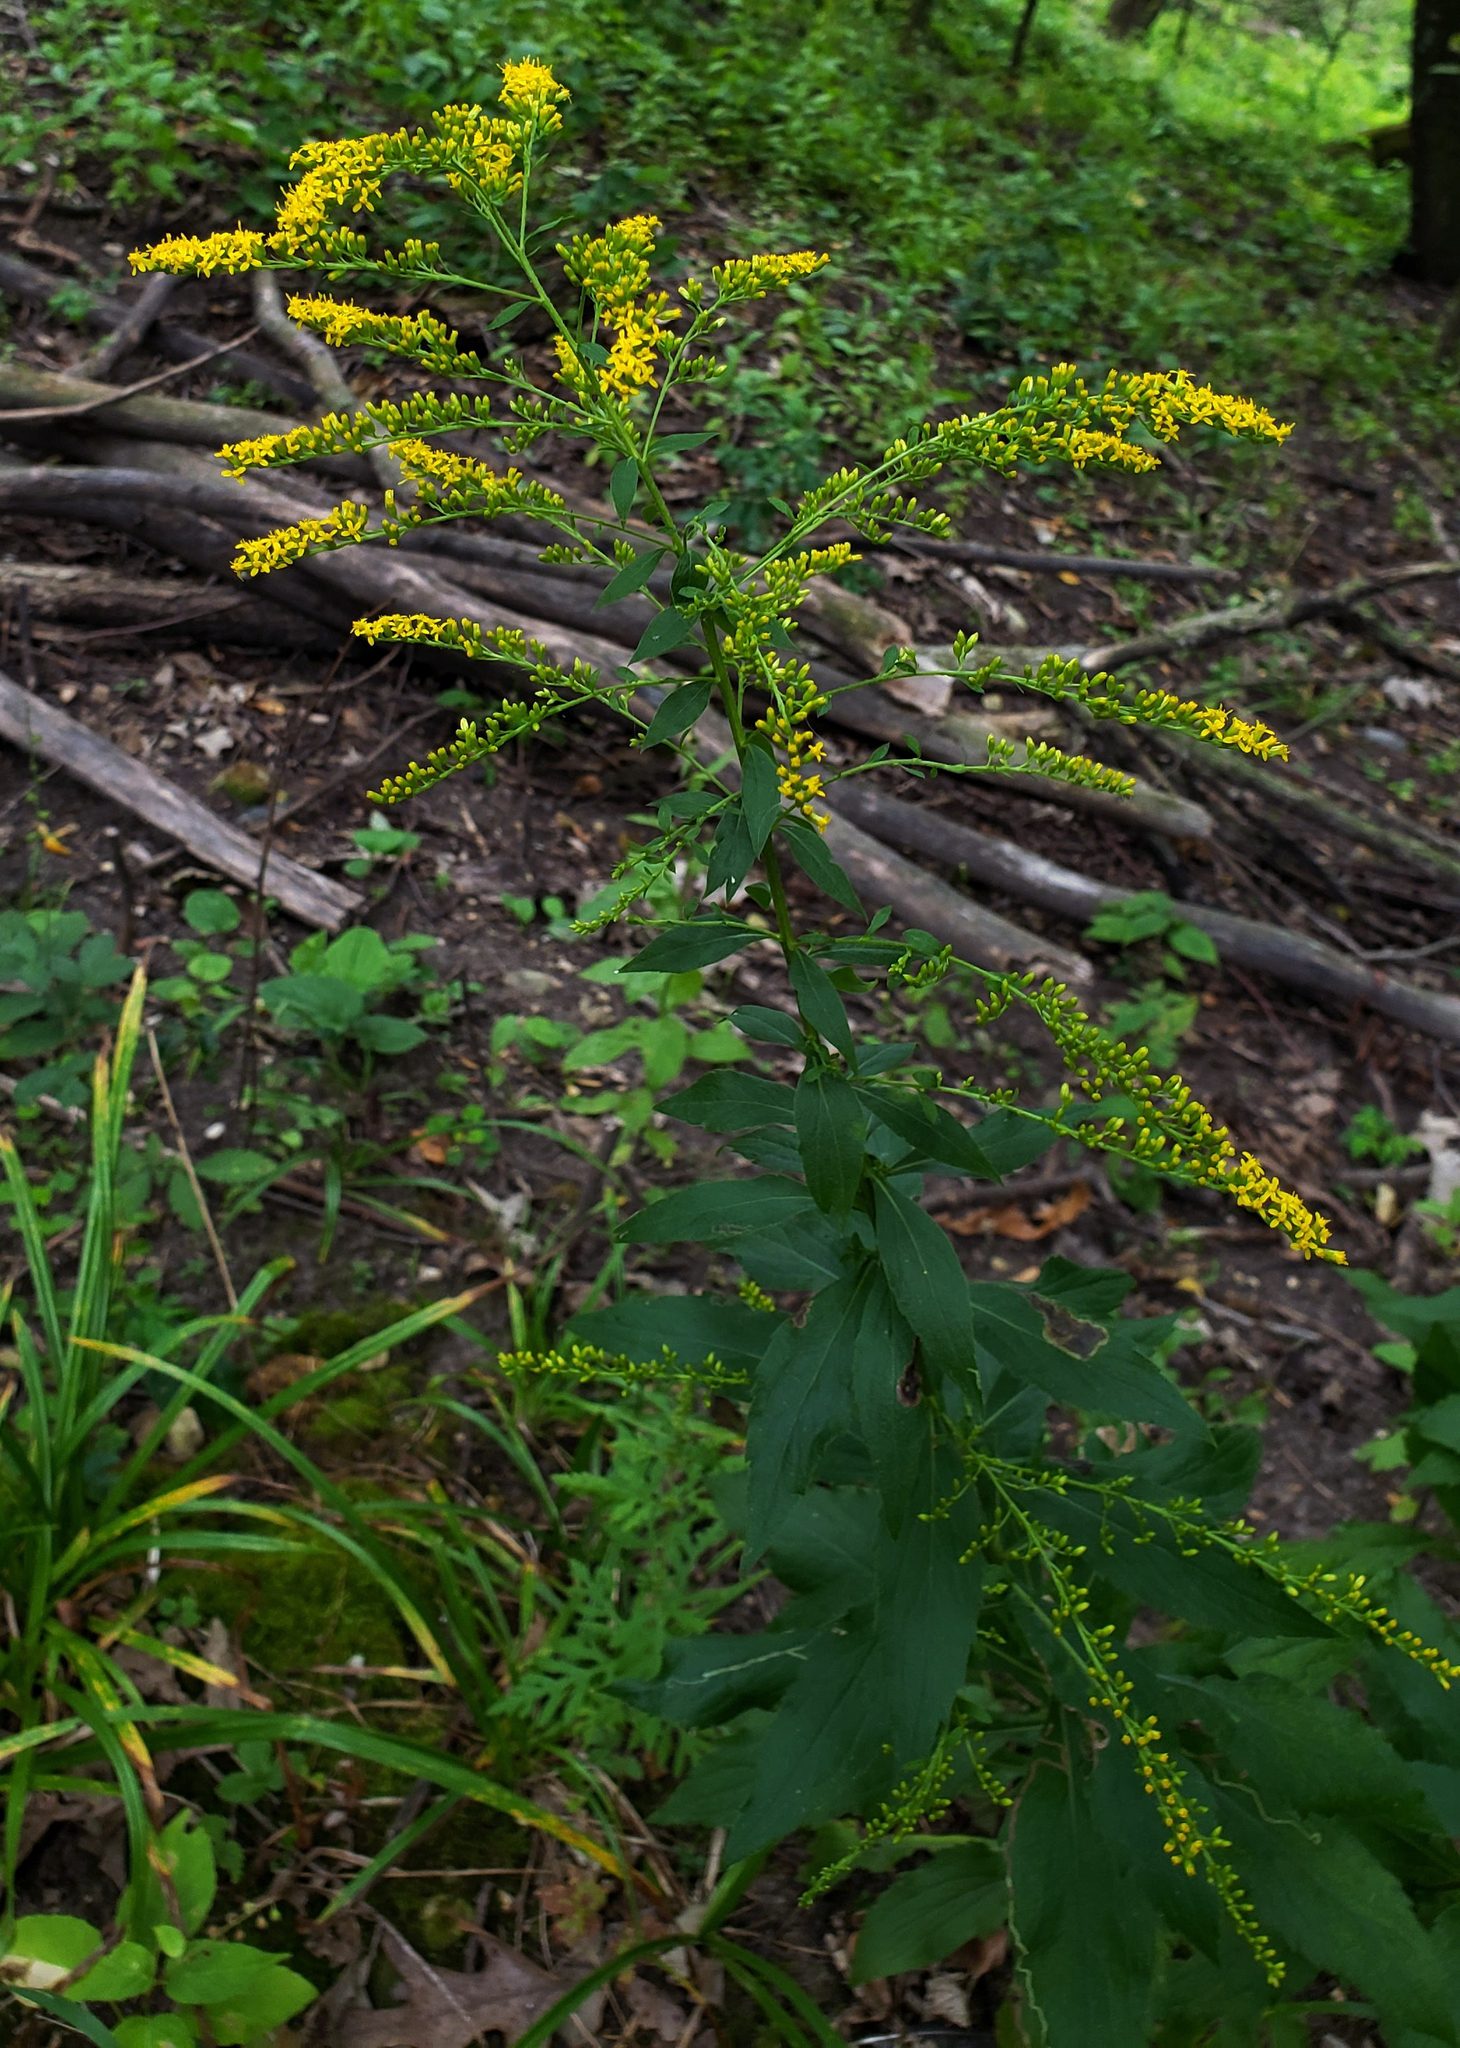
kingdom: Plantae
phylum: Tracheophyta
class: Magnoliopsida
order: Asterales
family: Asteraceae
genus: Solidago
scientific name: Solidago ulmifolia
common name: Elm-leaf goldenrod
